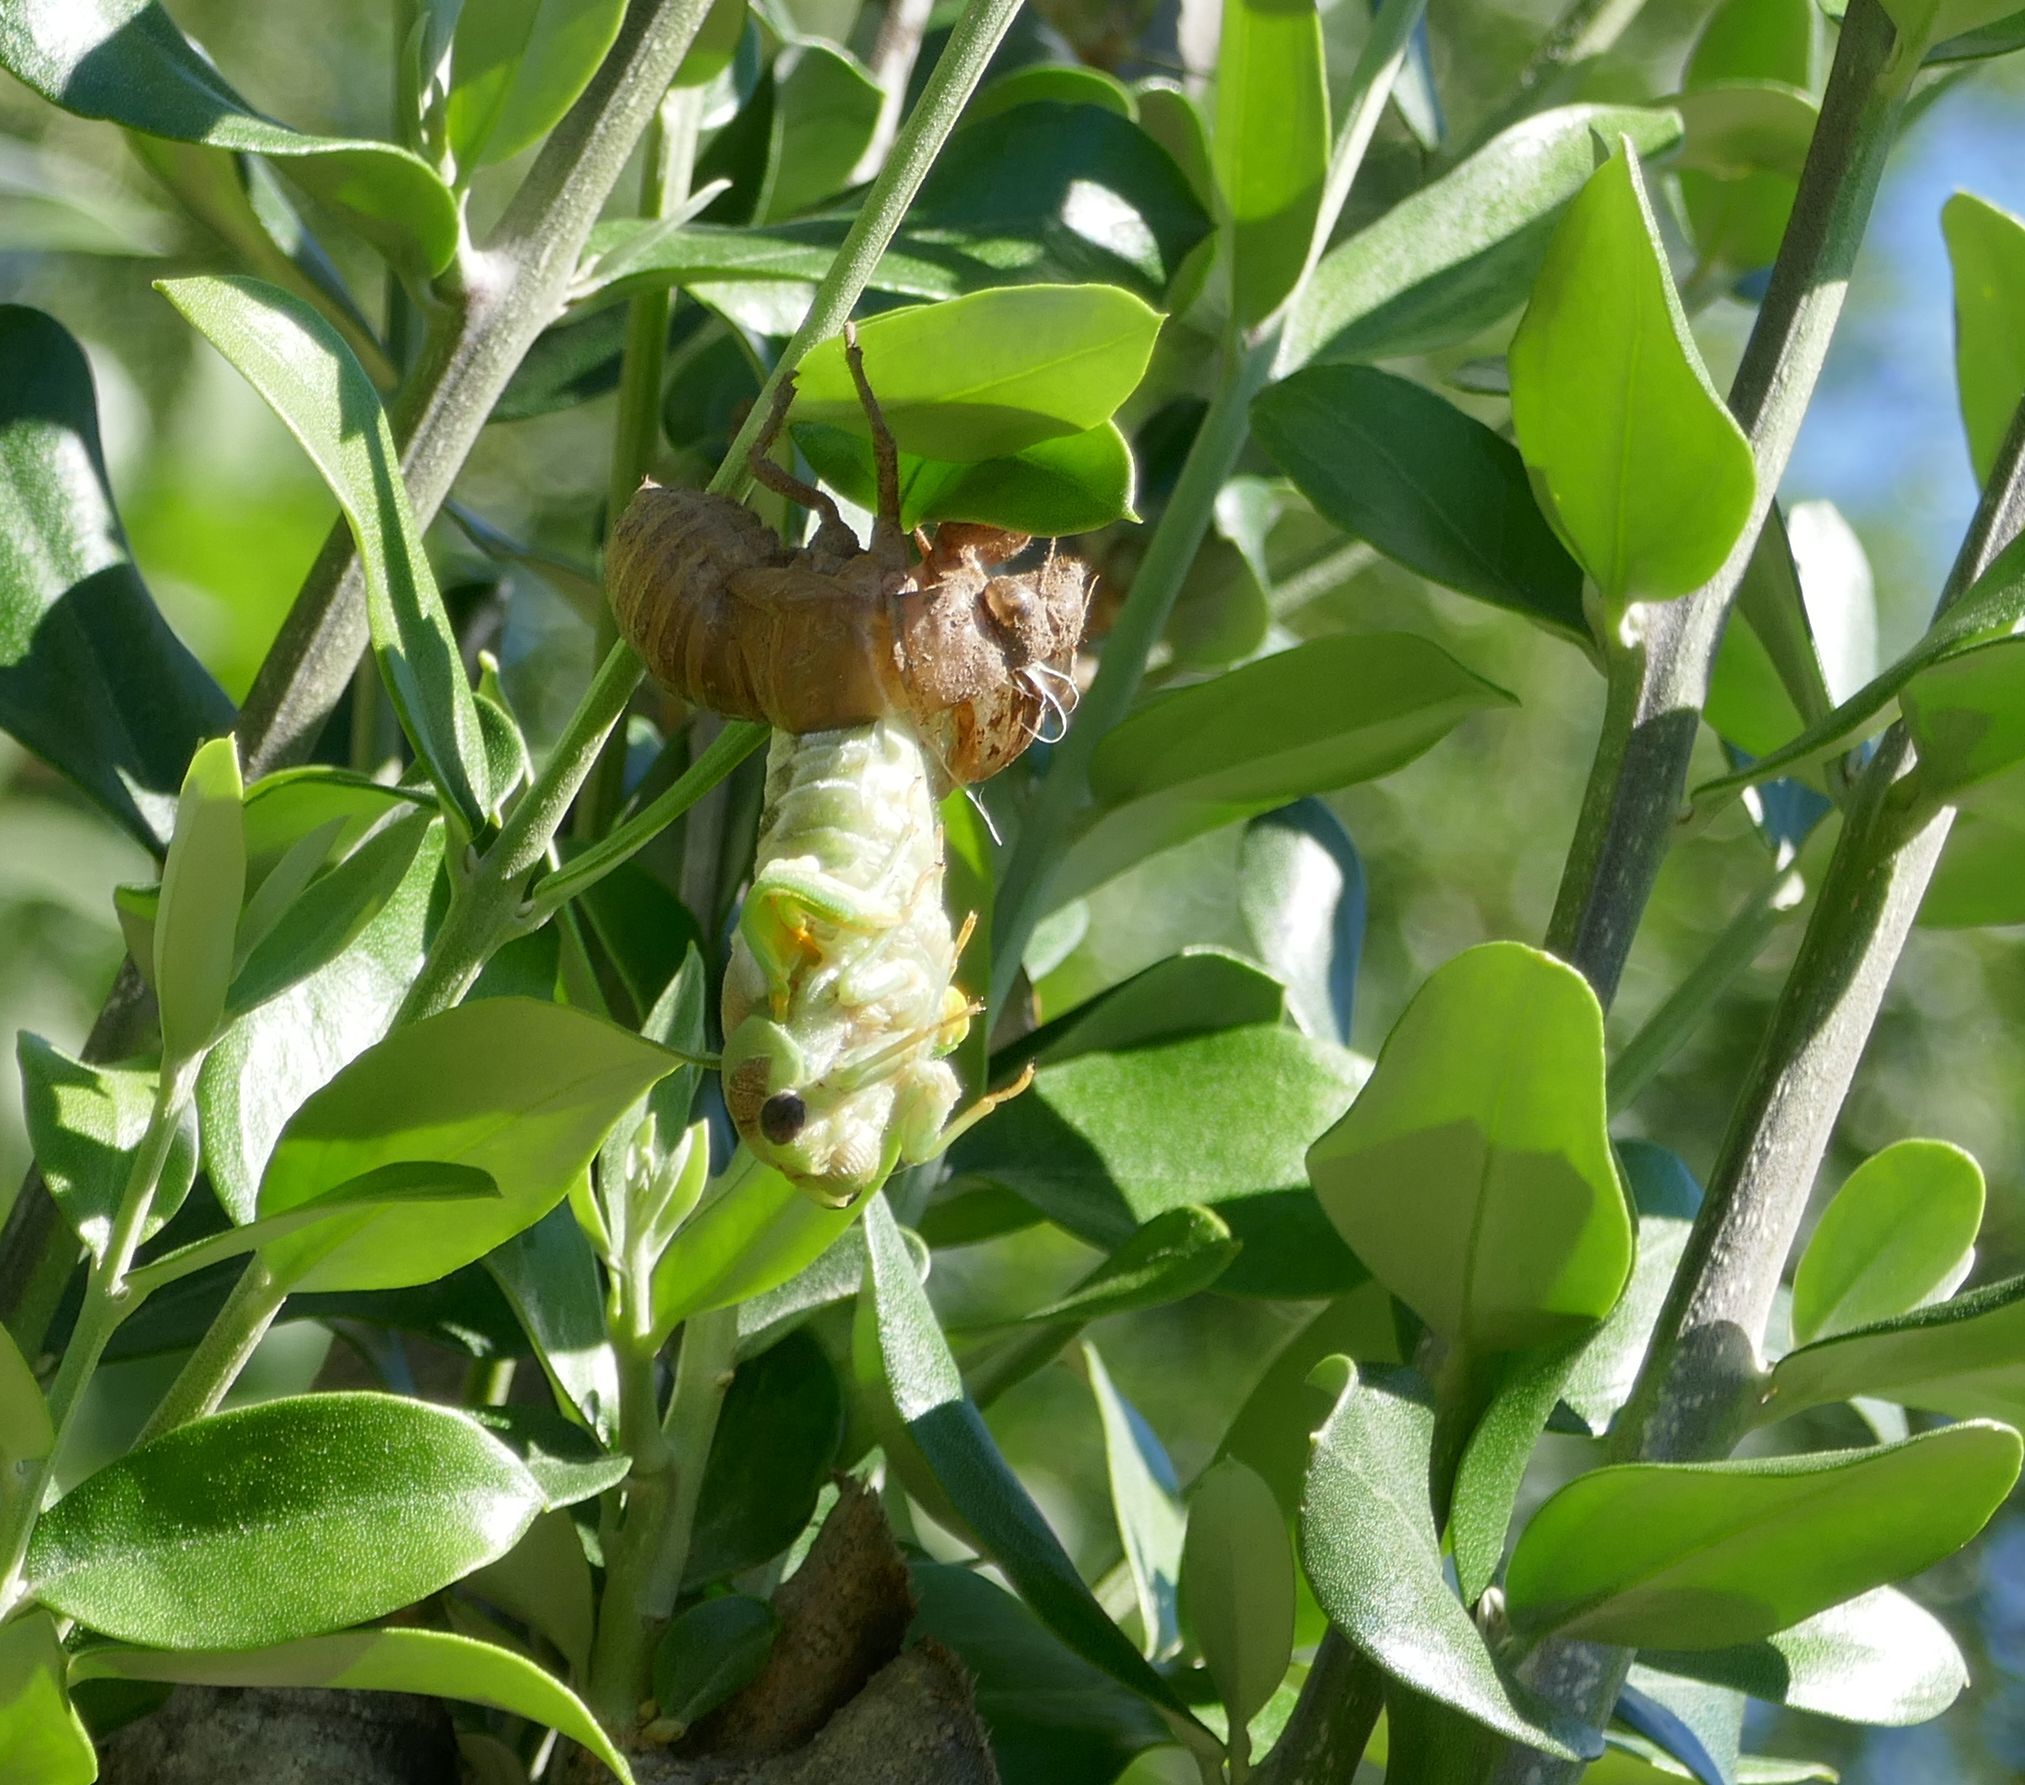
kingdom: Animalia
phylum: Arthropoda
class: Insecta
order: Hemiptera
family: Cicadidae
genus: Lyristes
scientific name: Lyristes plebejus
